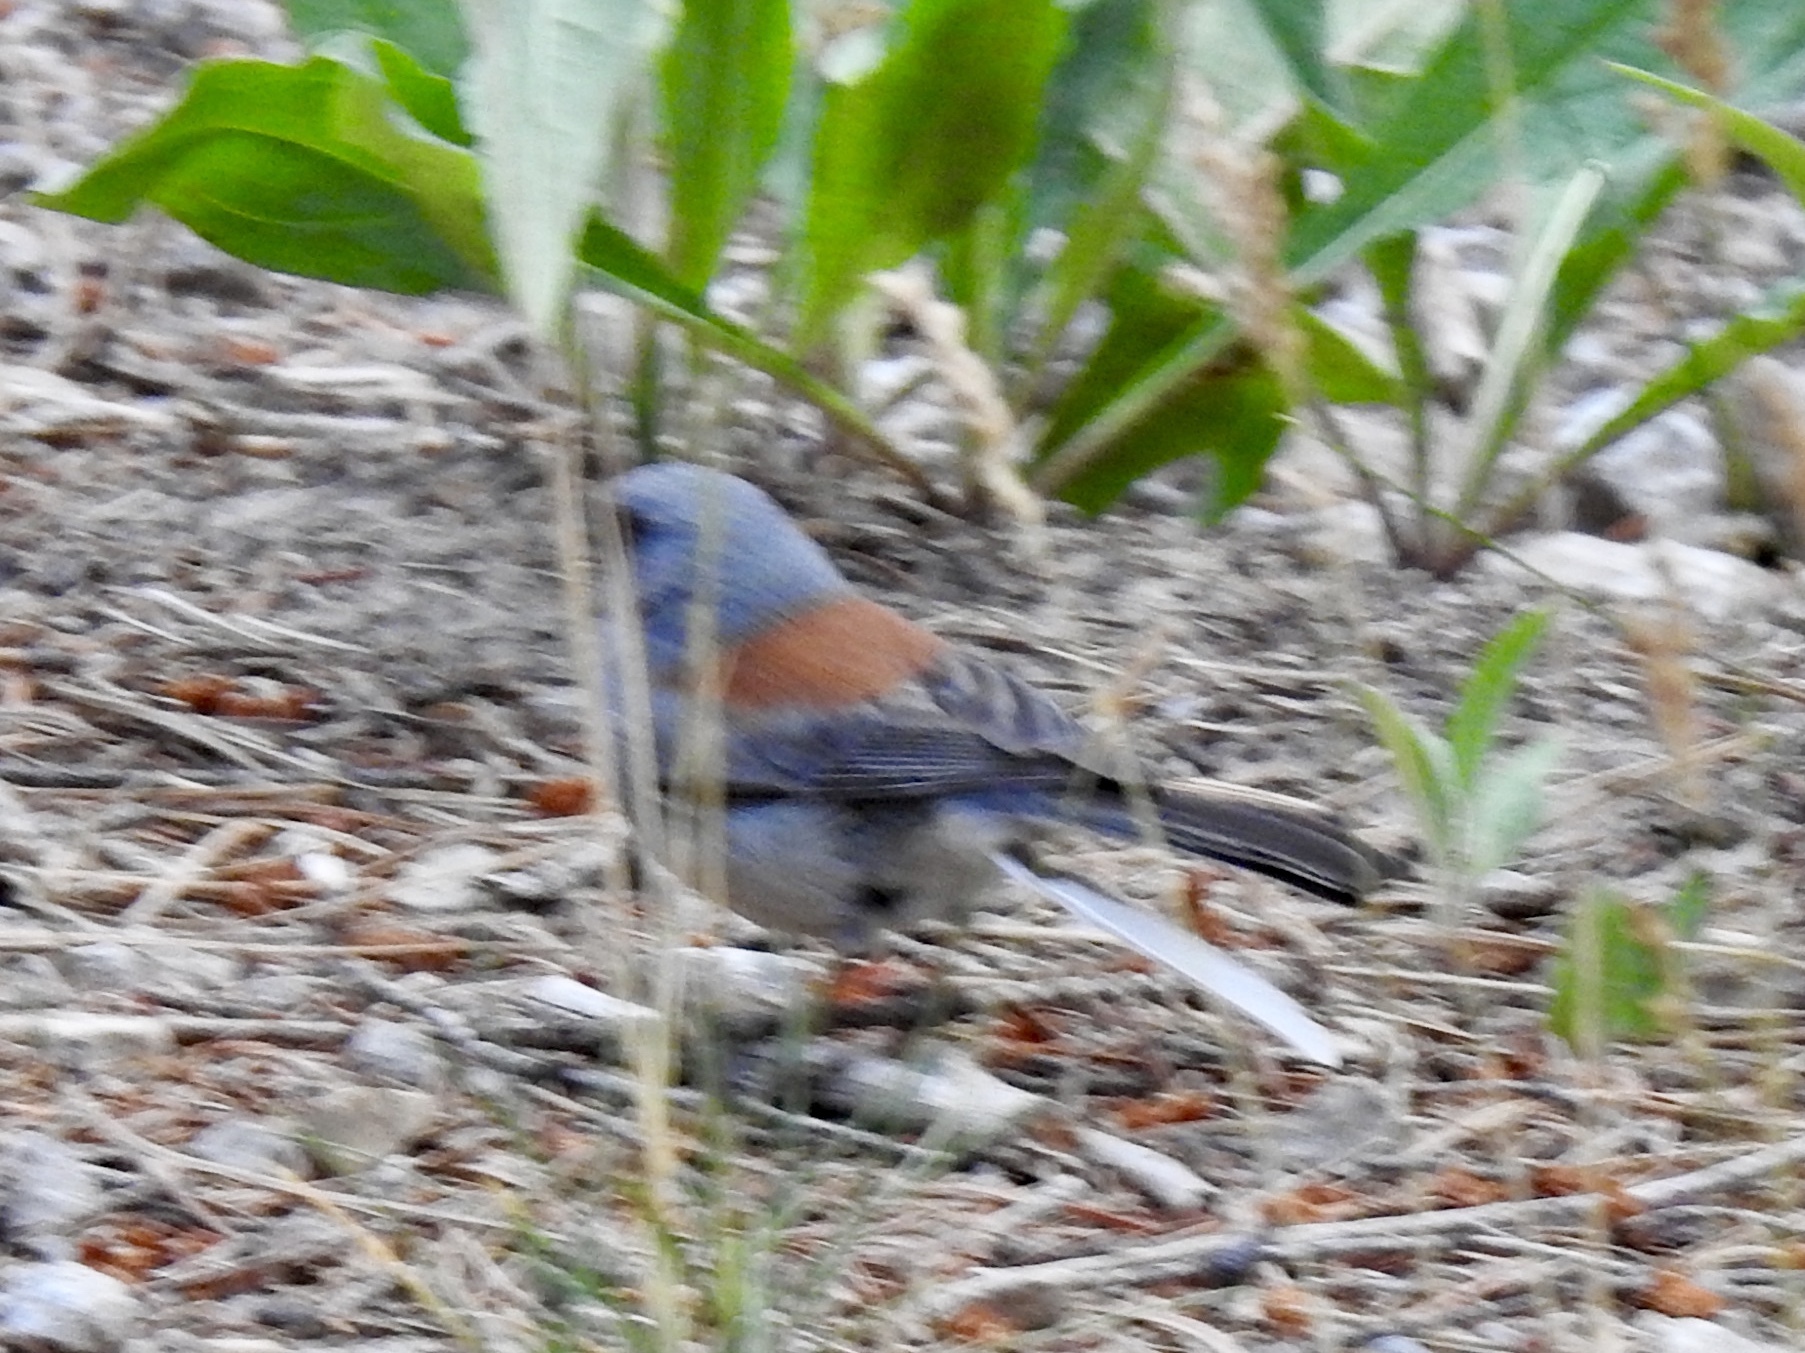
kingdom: Animalia
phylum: Chordata
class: Aves
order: Passeriformes
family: Passerellidae
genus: Junco
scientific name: Junco hyemalis
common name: Dark-eyed junco
